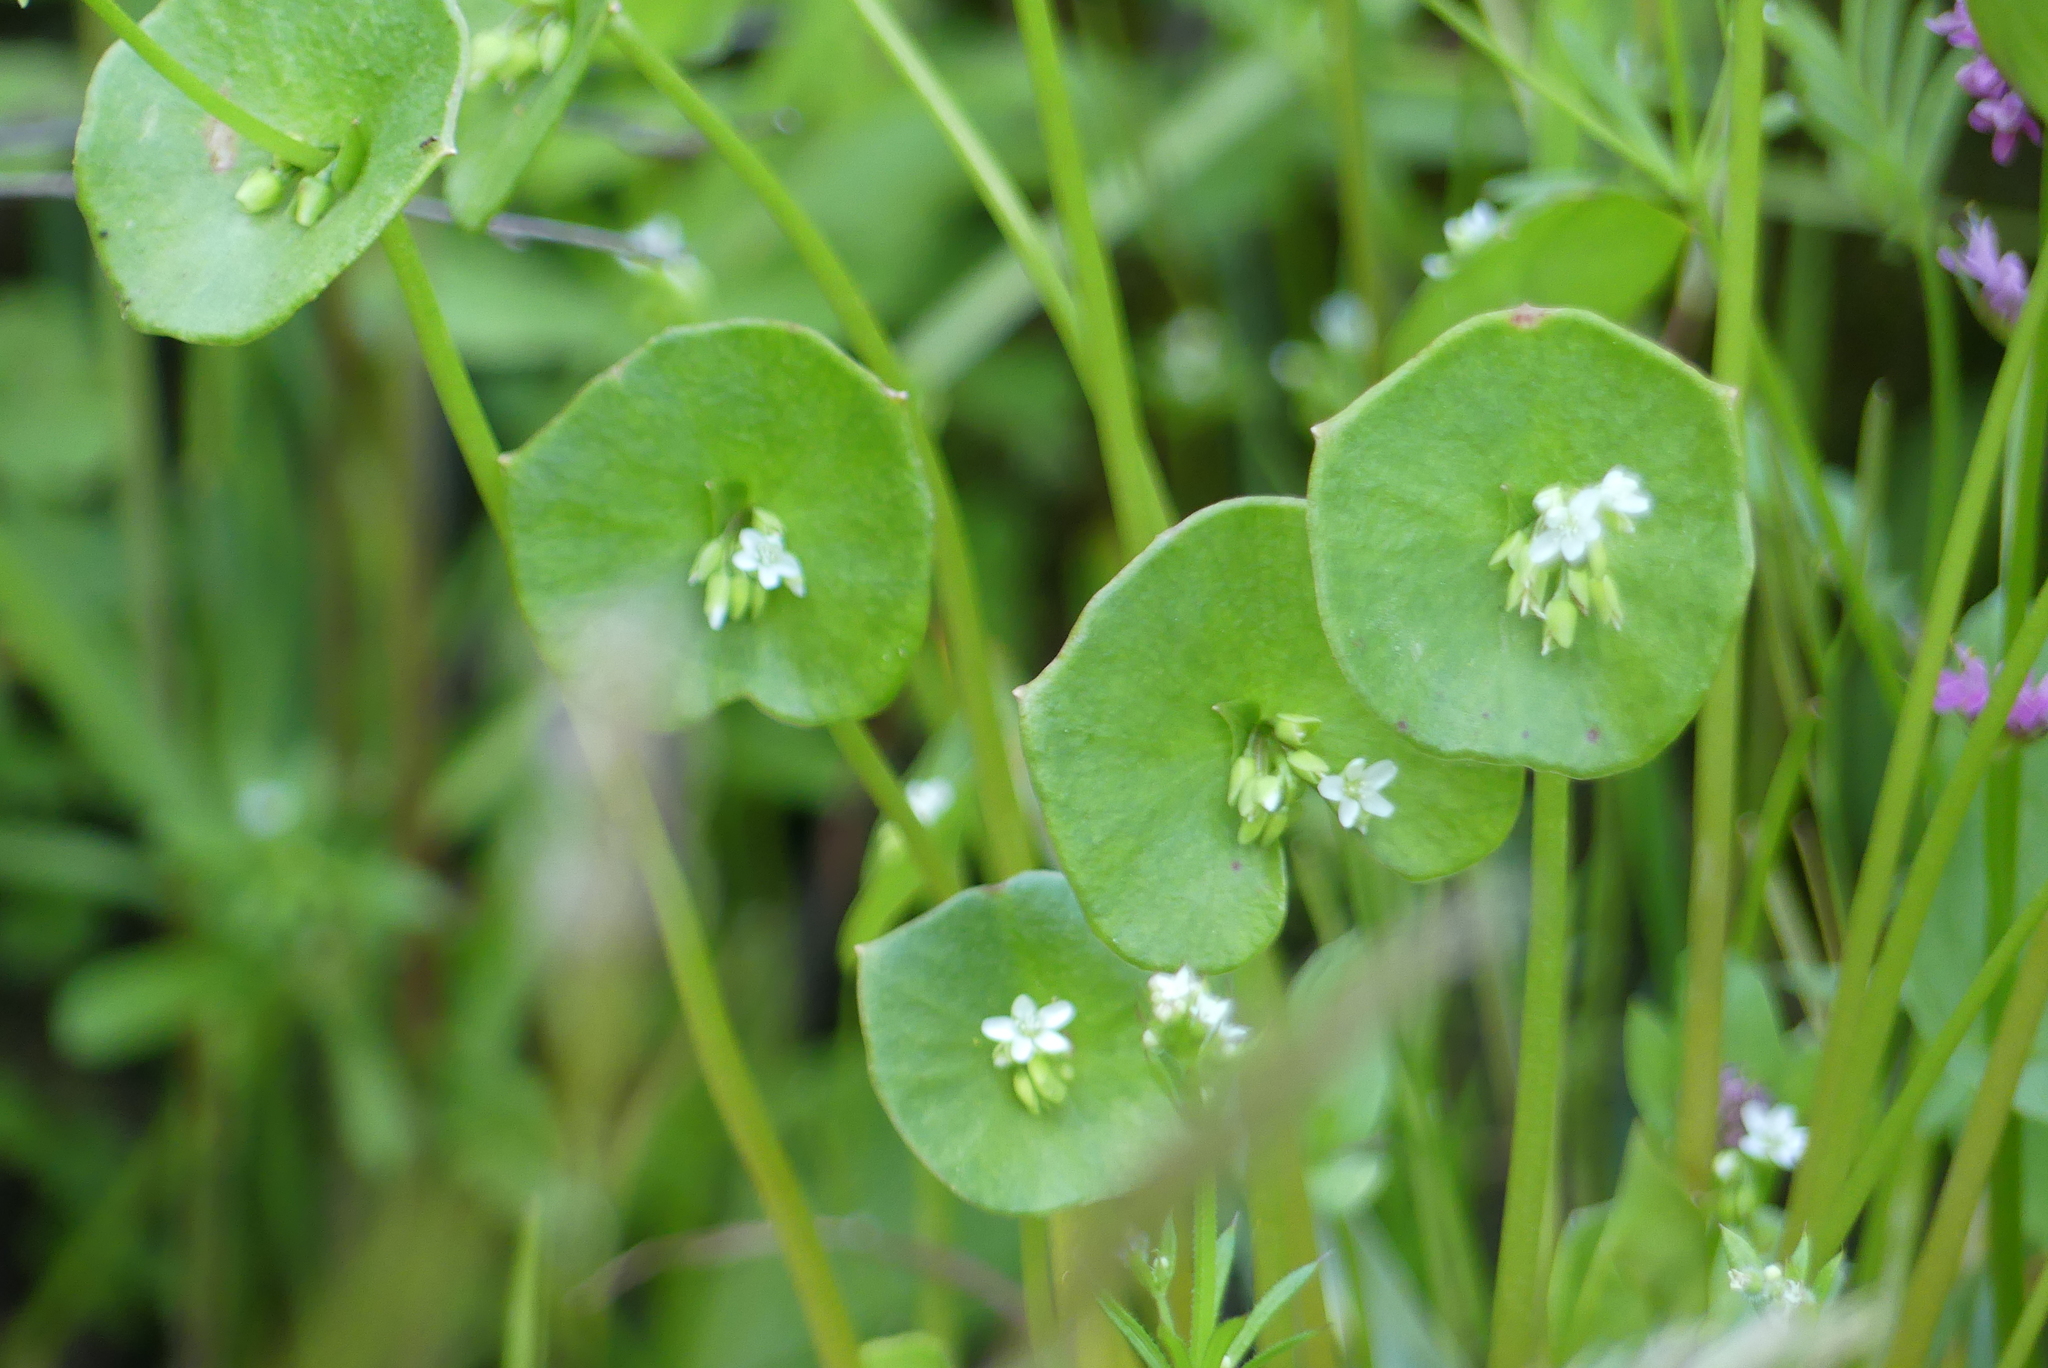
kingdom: Plantae
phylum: Tracheophyta
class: Magnoliopsida
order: Caryophyllales
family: Montiaceae
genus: Claytonia
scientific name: Claytonia perfoliata
